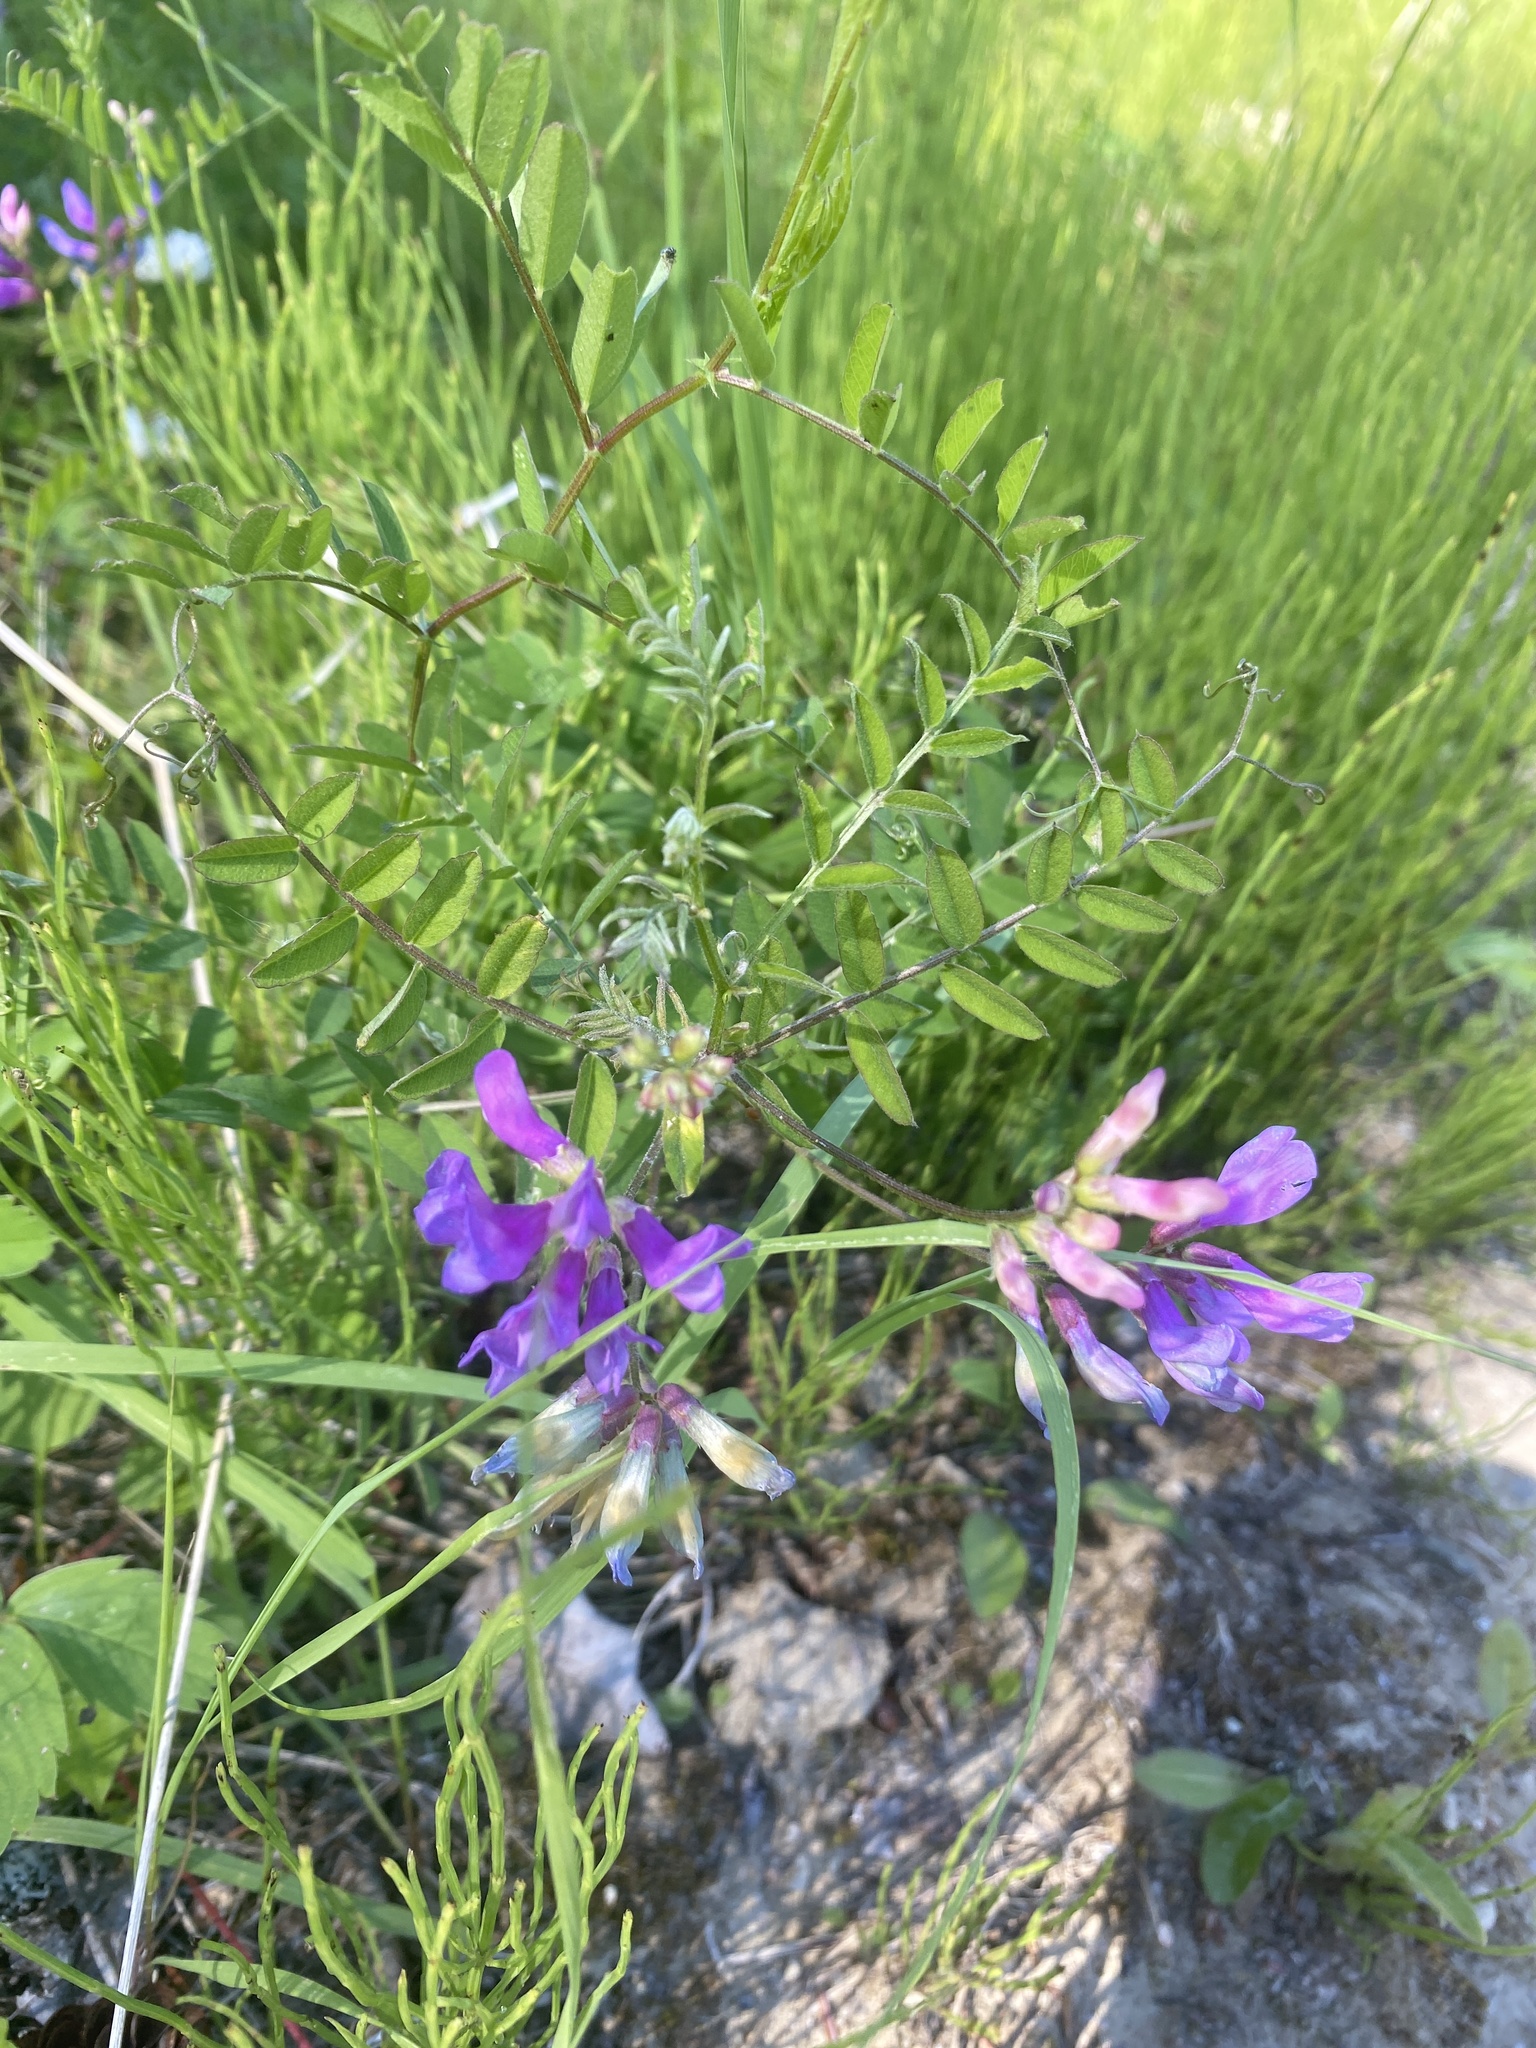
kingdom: Plantae
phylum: Tracheophyta
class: Magnoliopsida
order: Fabales
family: Fabaceae
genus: Vicia
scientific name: Vicia americana
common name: American vetch
